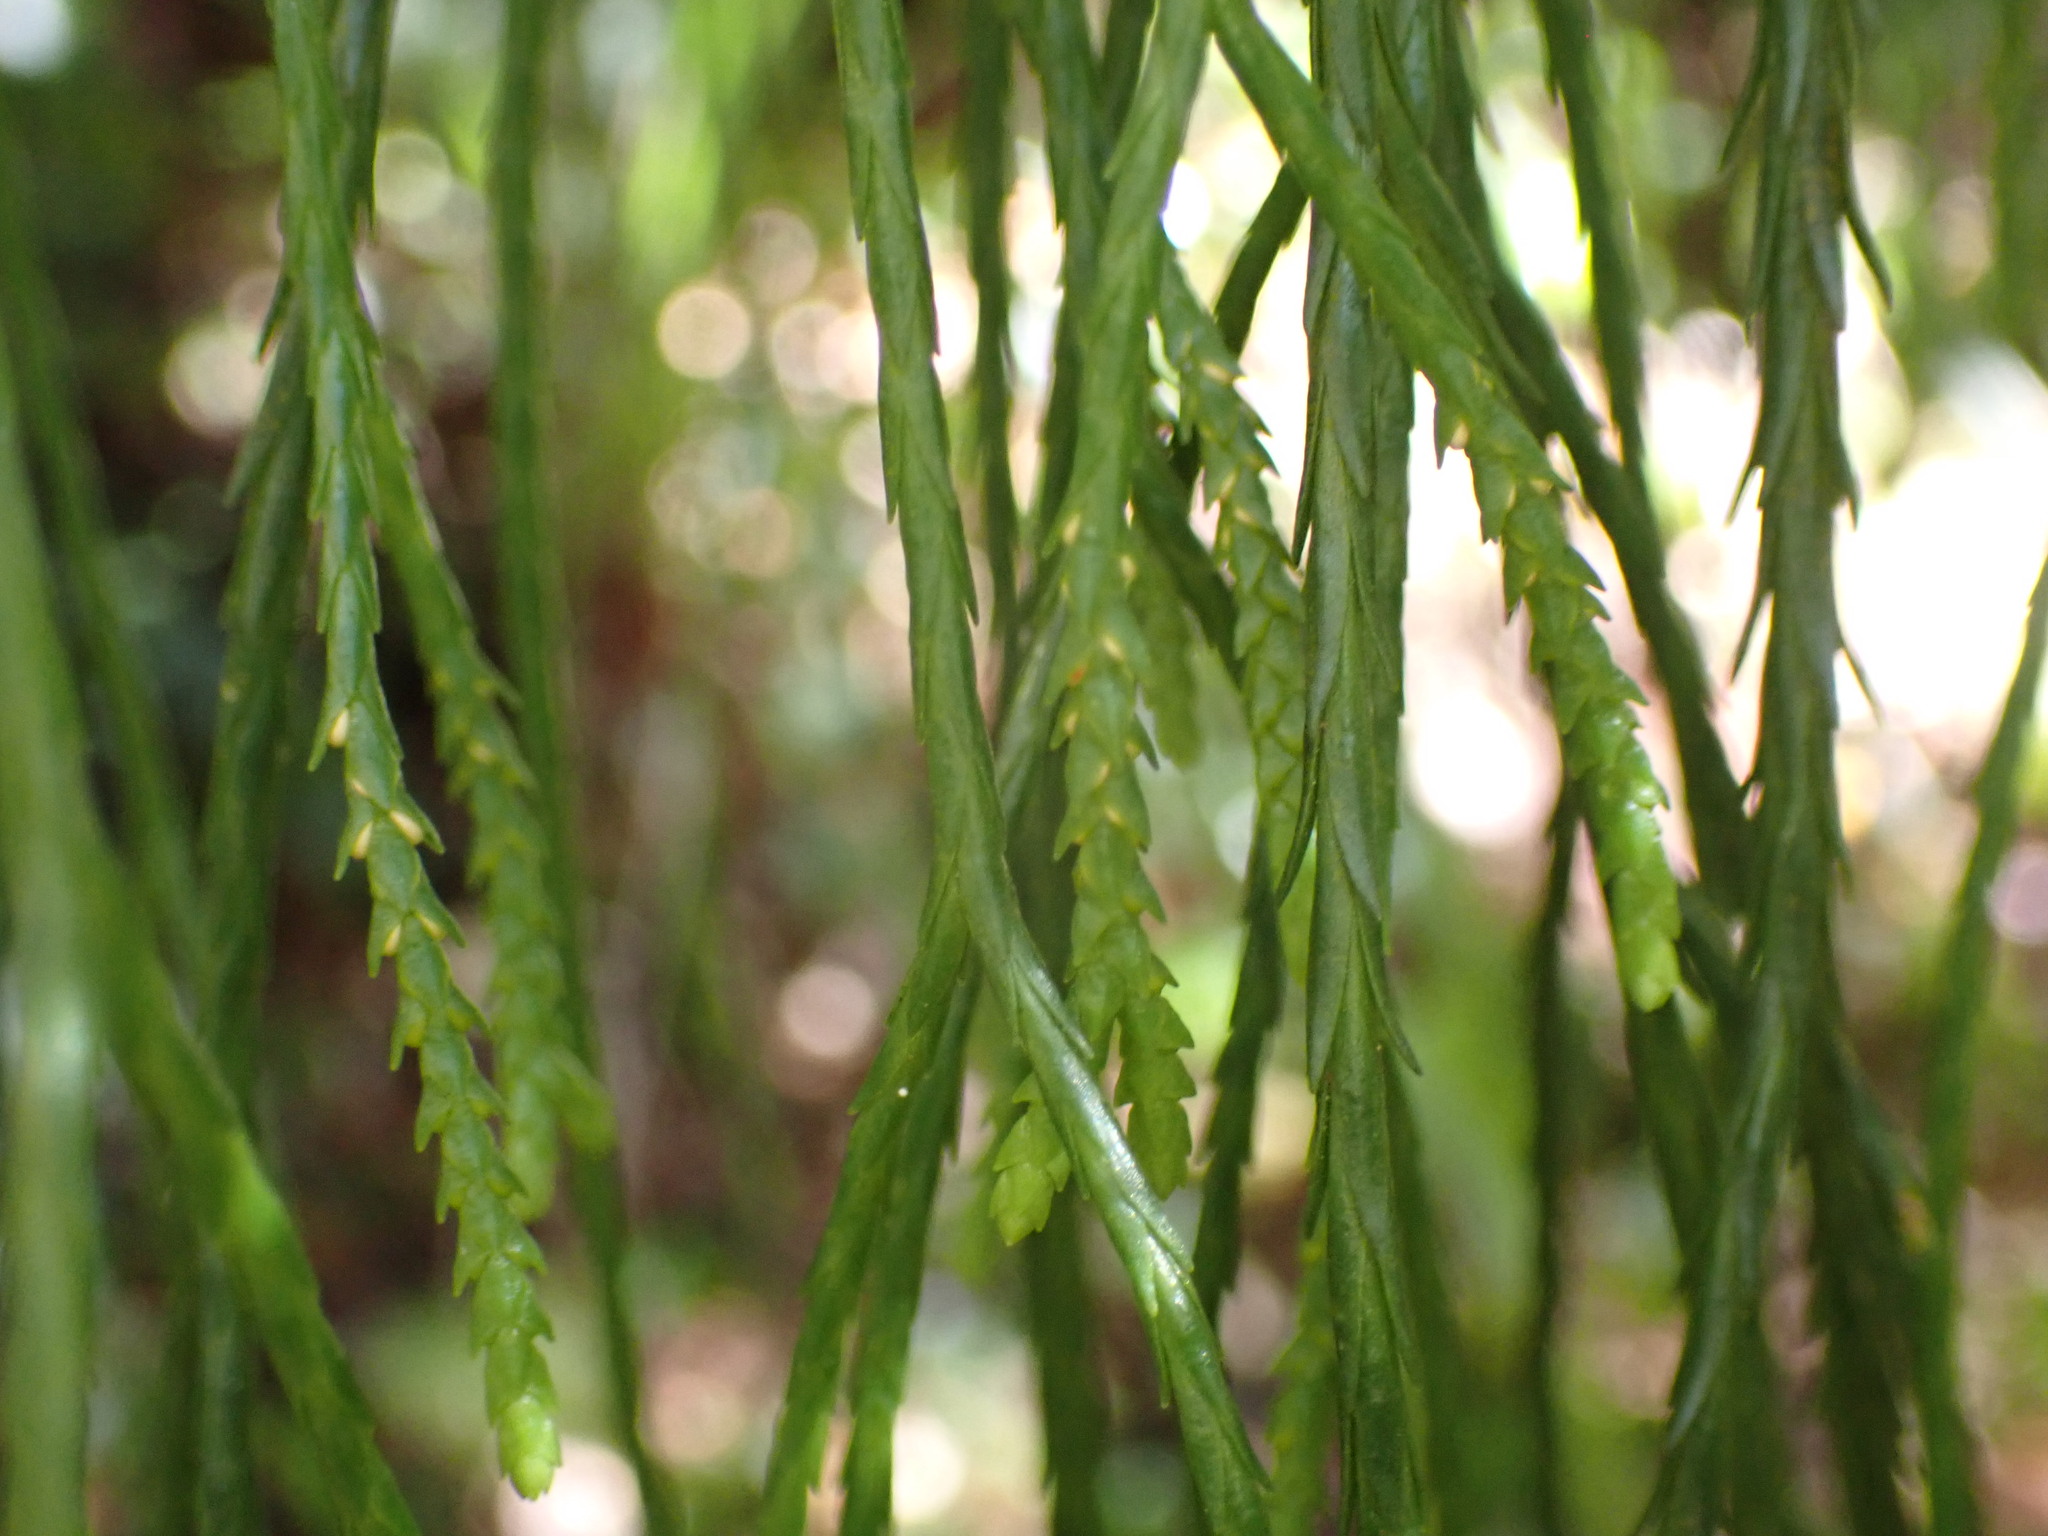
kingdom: Plantae
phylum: Tracheophyta
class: Lycopodiopsida
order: Lycopodiales
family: Lycopodiaceae
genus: Phlegmariurus
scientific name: Phlegmariurus billardierei
